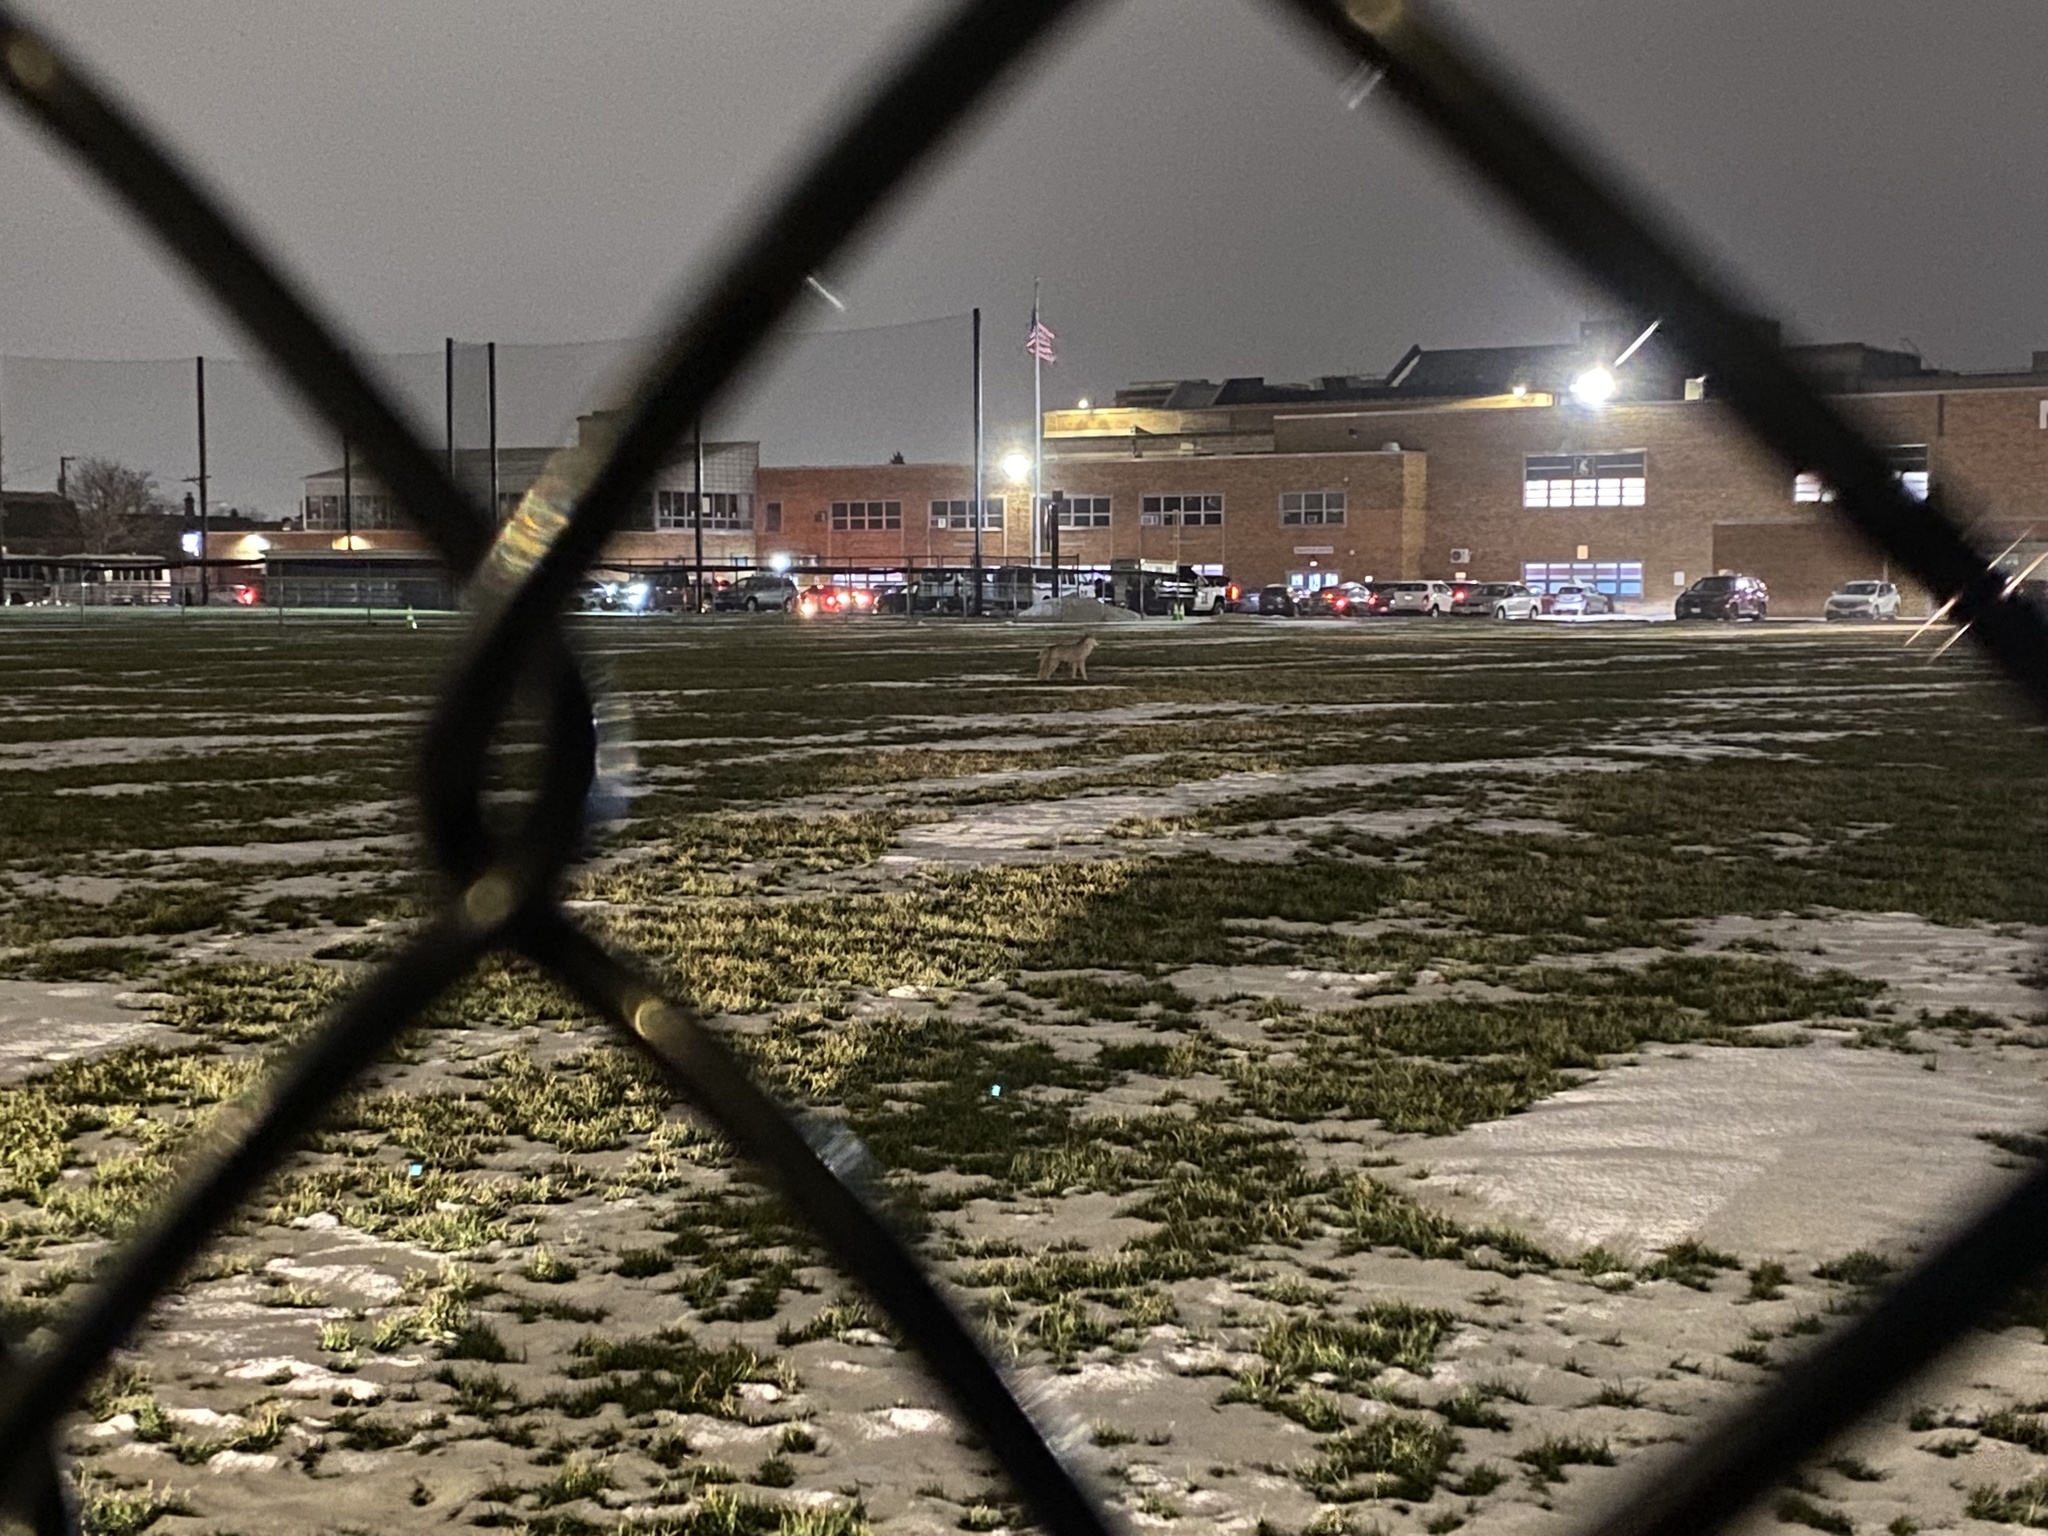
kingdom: Animalia
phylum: Chordata
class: Mammalia
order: Carnivora
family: Canidae
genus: Canis
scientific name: Canis latrans
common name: Coyote
